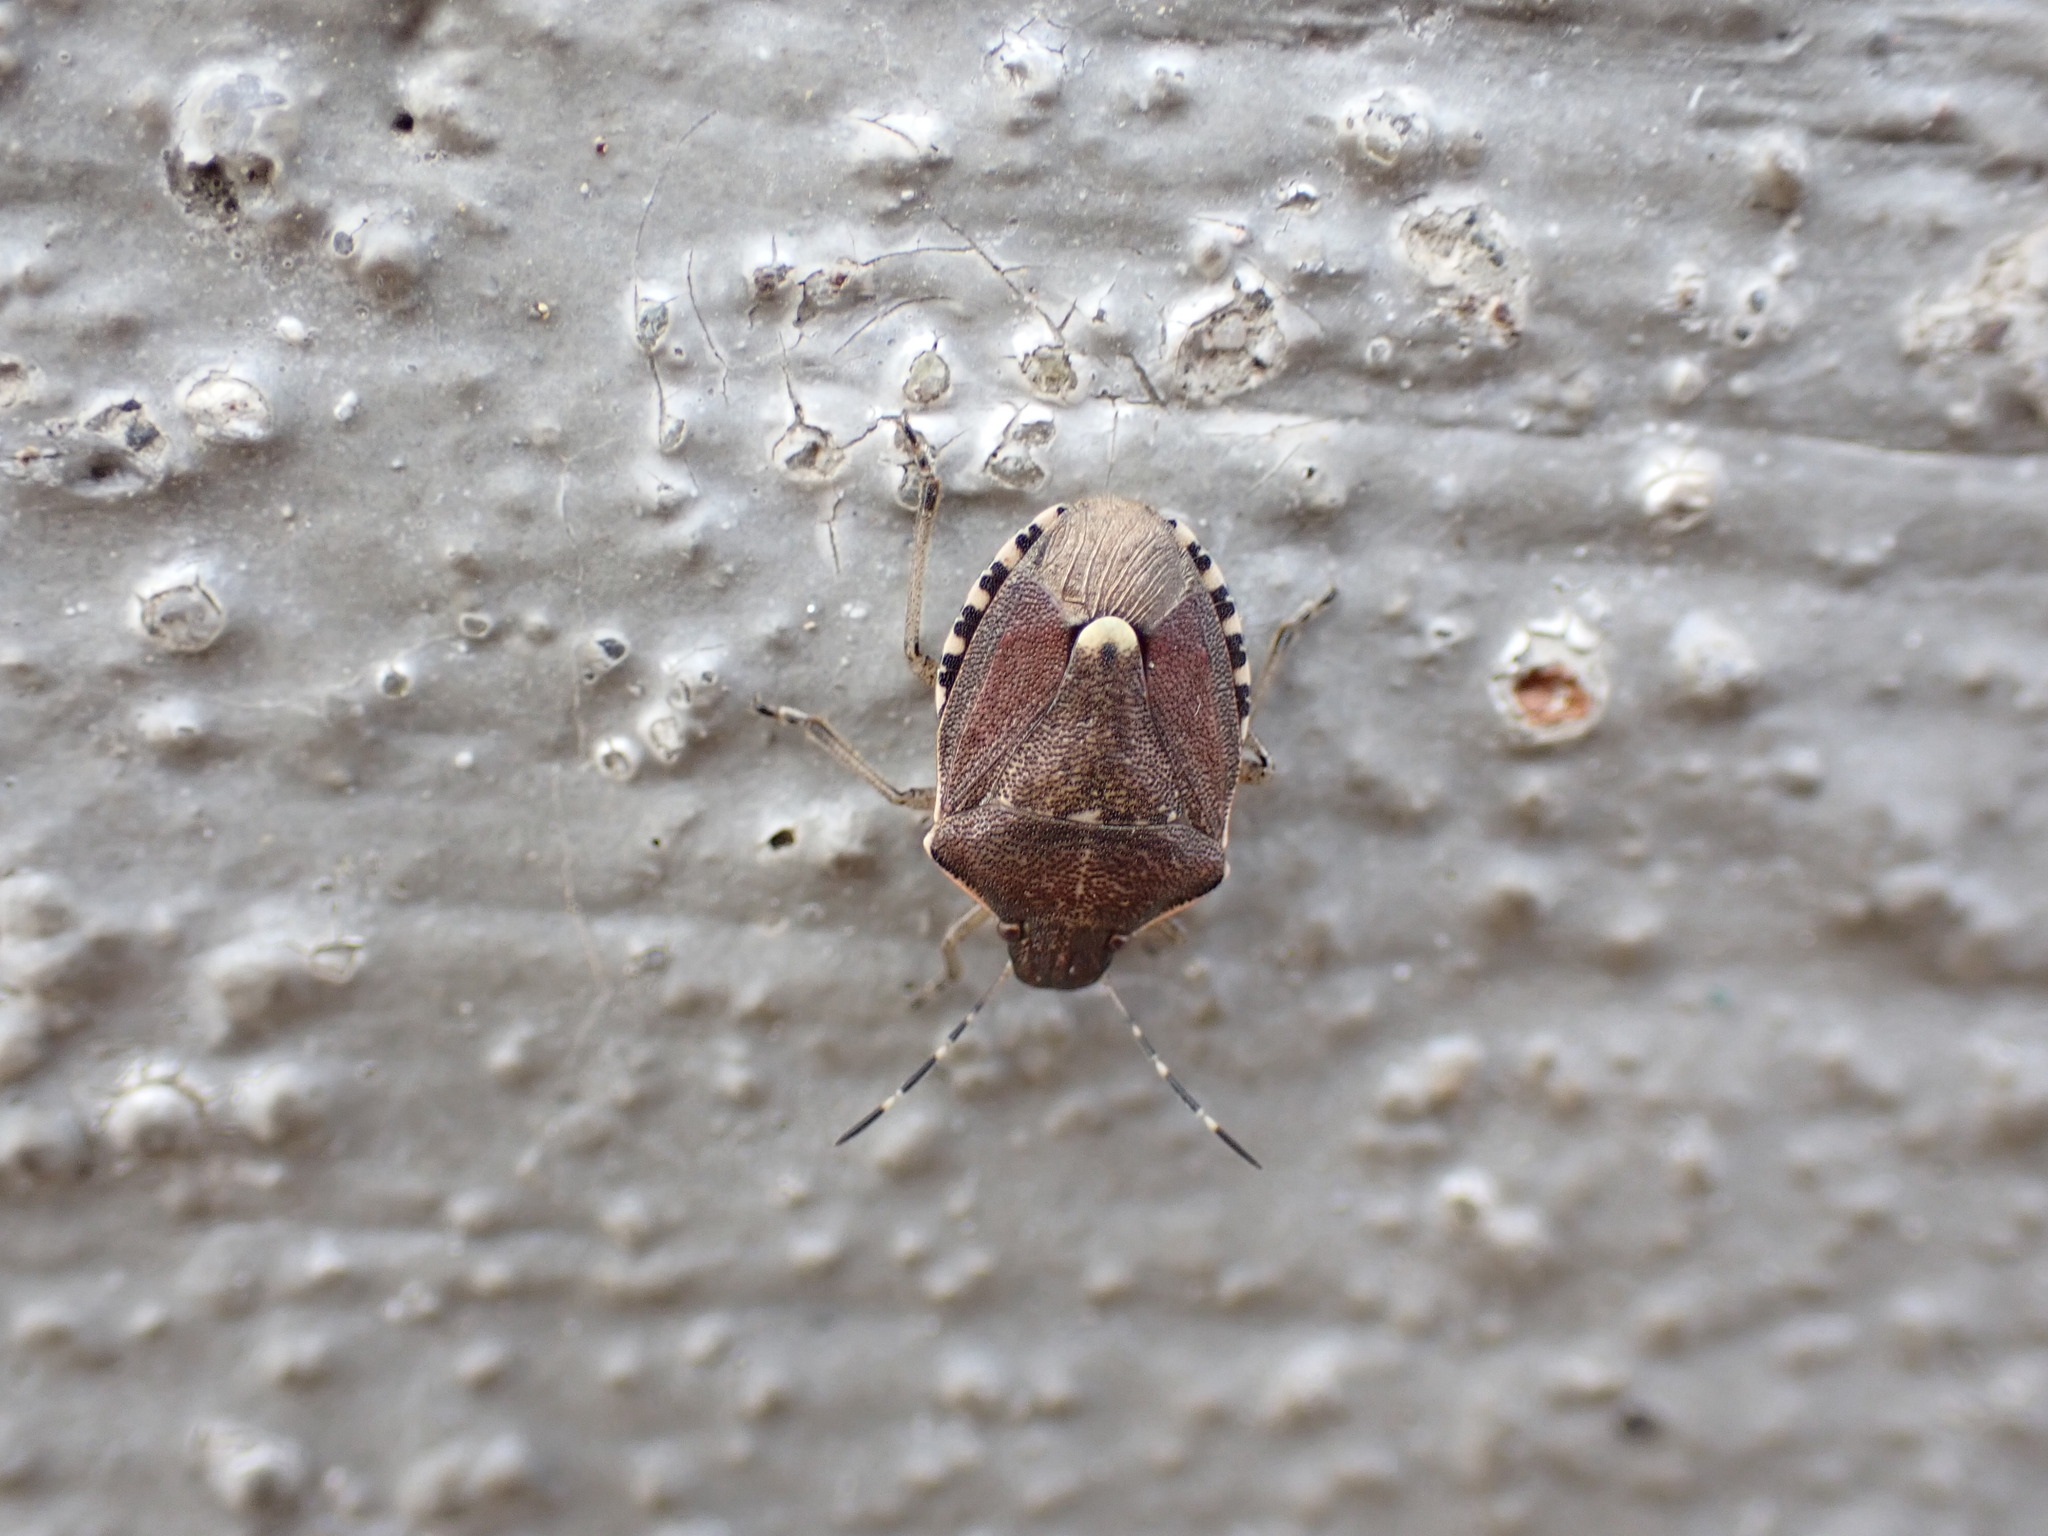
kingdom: Animalia
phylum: Arthropoda
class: Insecta
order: Hemiptera
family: Pentatomidae
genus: Holcostethus
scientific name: Holcostethus sphacelatus
